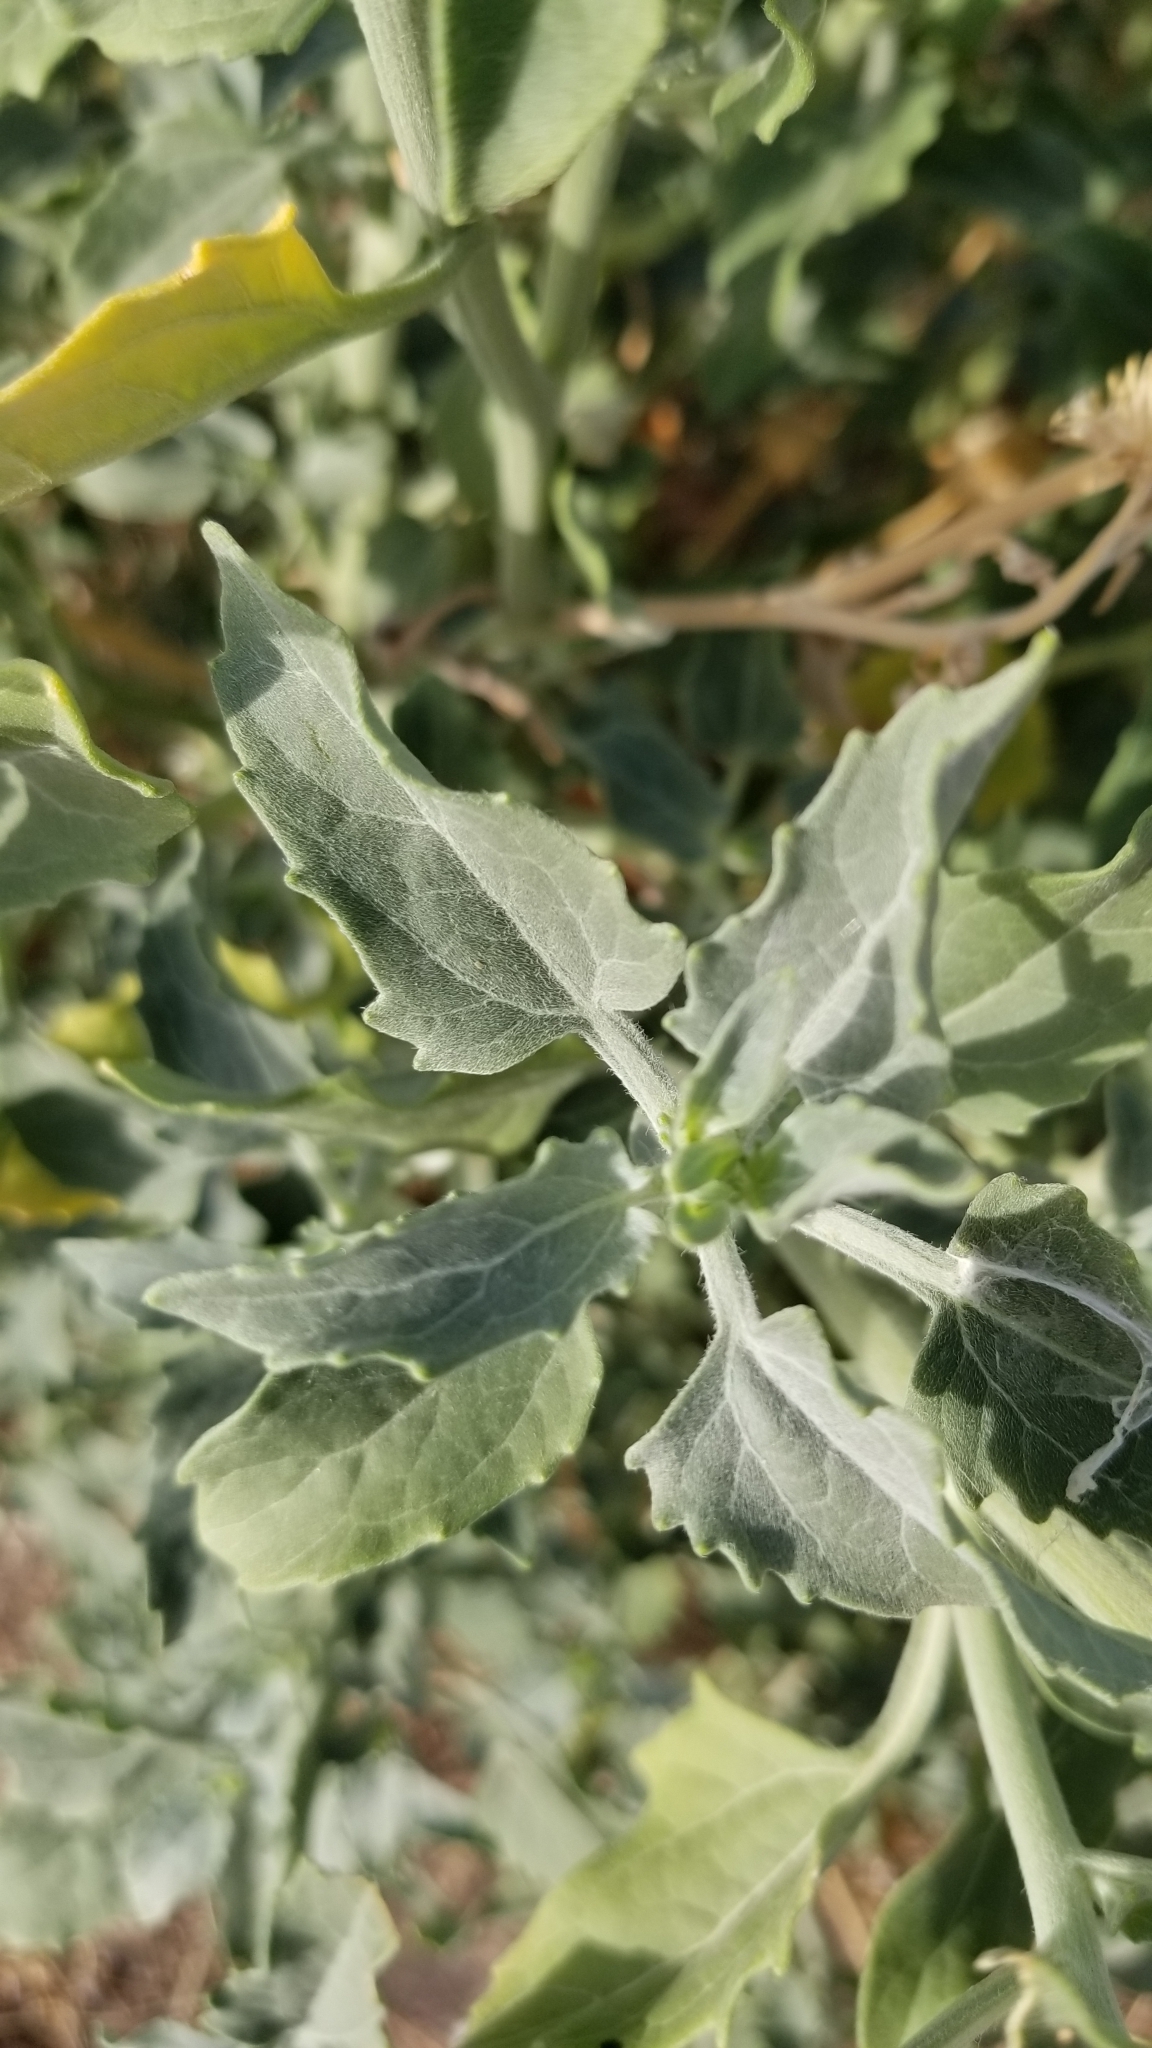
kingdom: Plantae
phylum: Tracheophyta
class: Magnoliopsida
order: Asterales
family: Asteraceae
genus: Verbesina
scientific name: Verbesina encelioides
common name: Golden crownbeard
